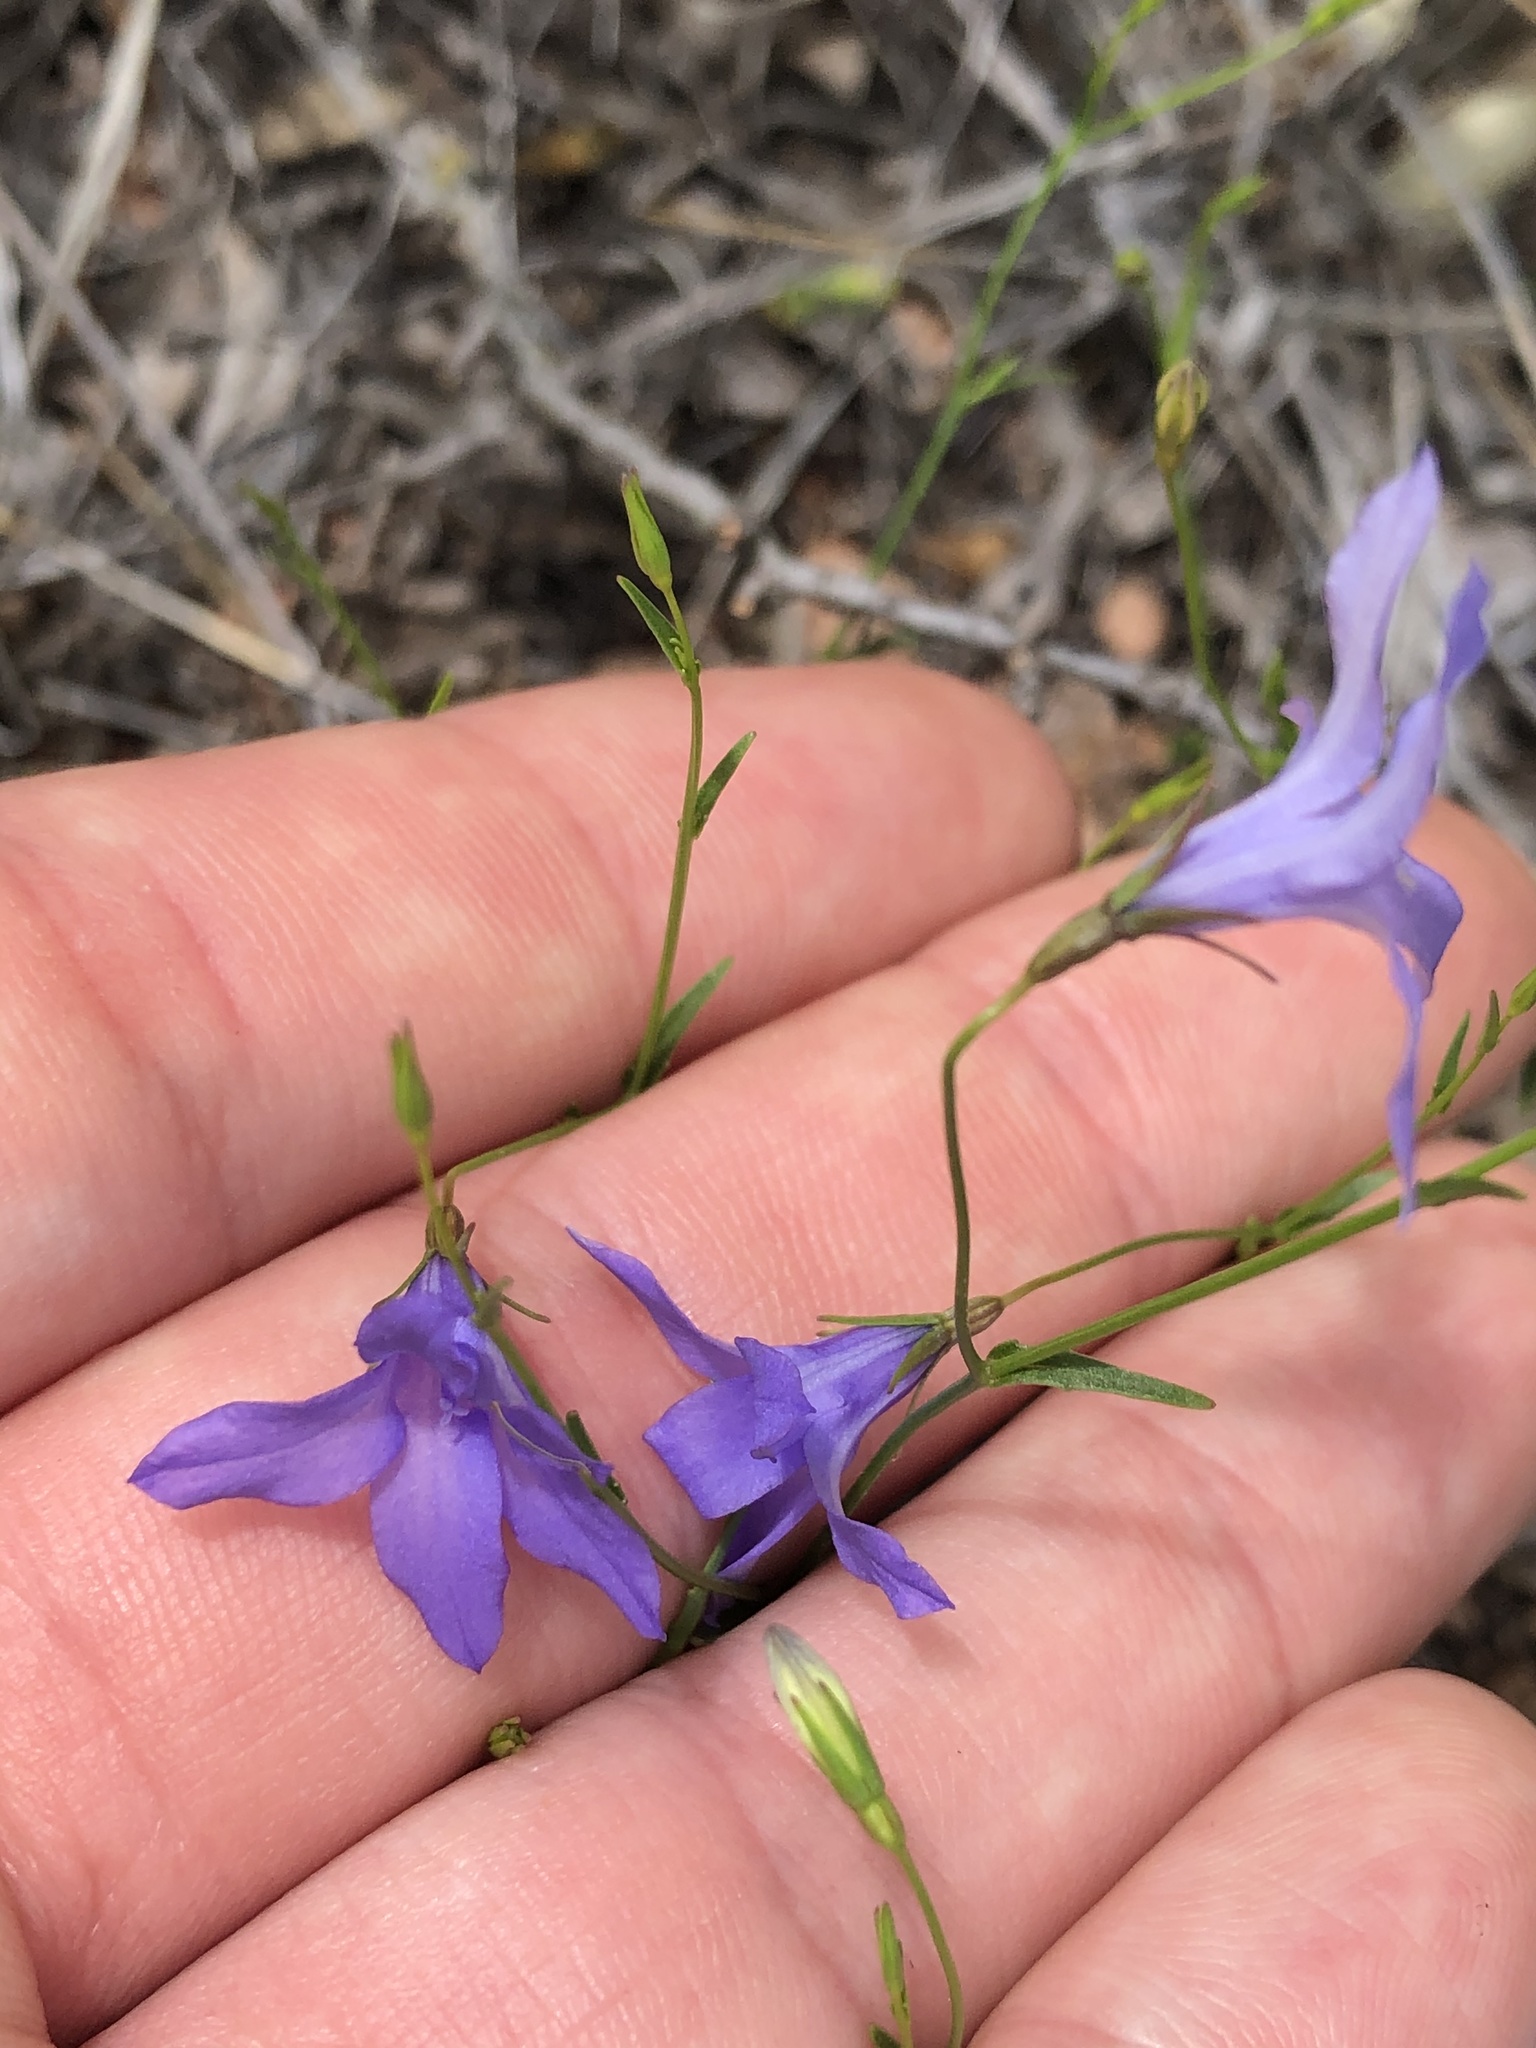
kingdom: Plantae
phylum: Tracheophyta
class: Magnoliopsida
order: Asterales
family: Campanulaceae
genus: Poolea
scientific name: Poolea reverchonii
